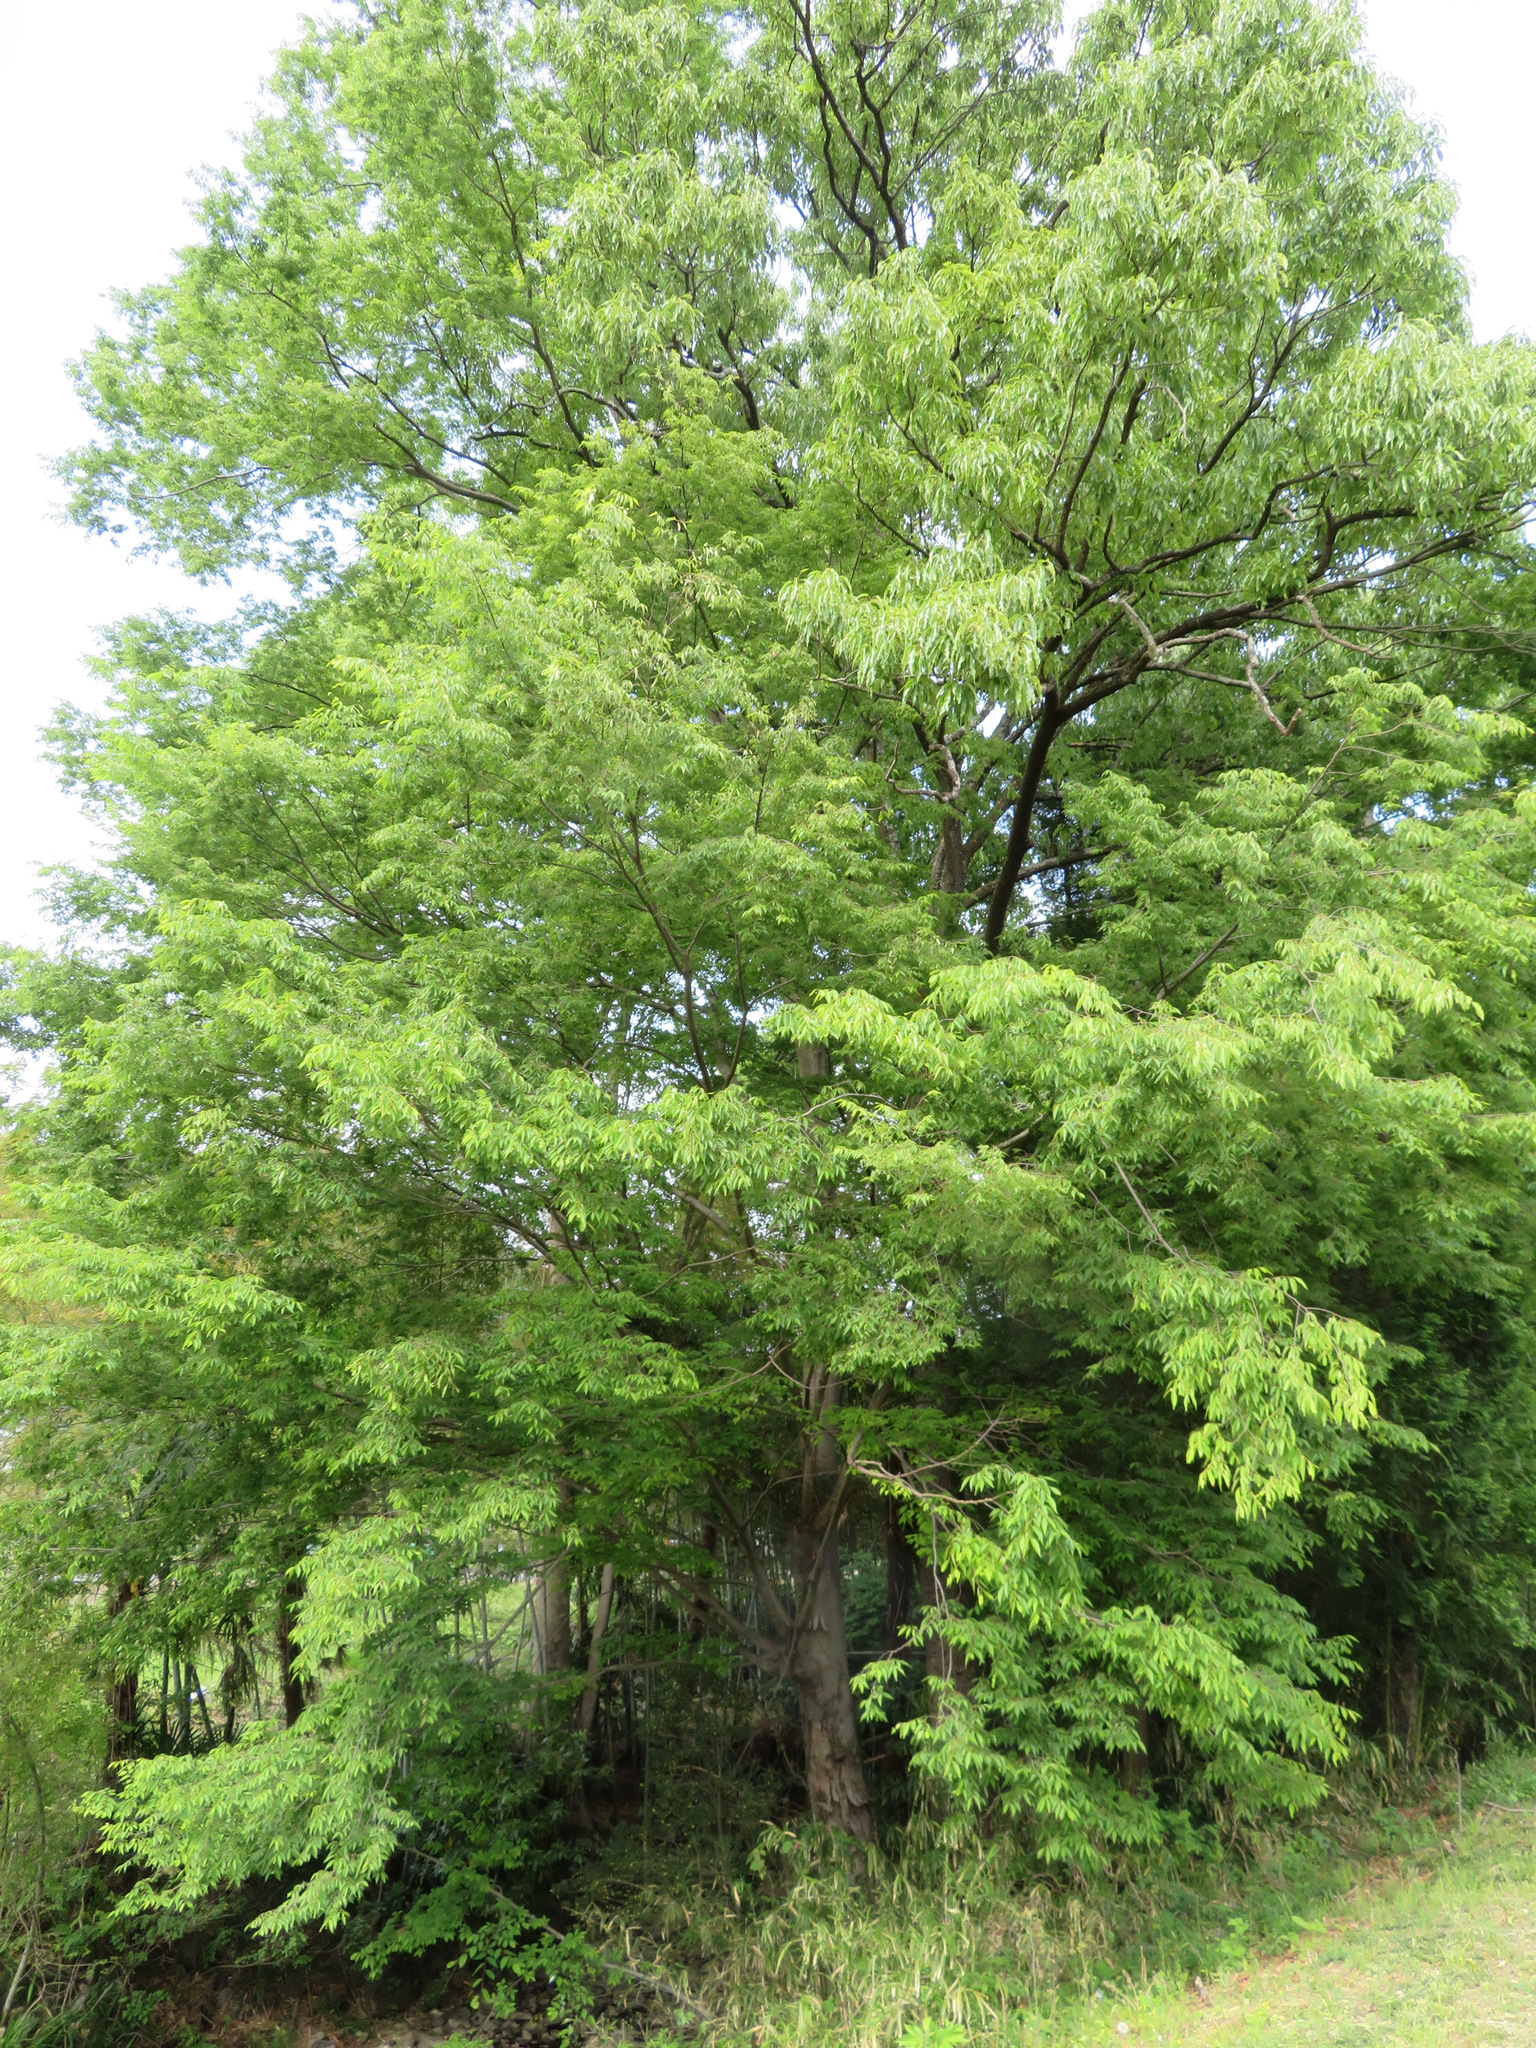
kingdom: Plantae
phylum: Tracheophyta
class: Magnoliopsida
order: Rosales
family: Ulmaceae
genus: Zelkova
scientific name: Zelkova serrata
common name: Japanese zelkova
